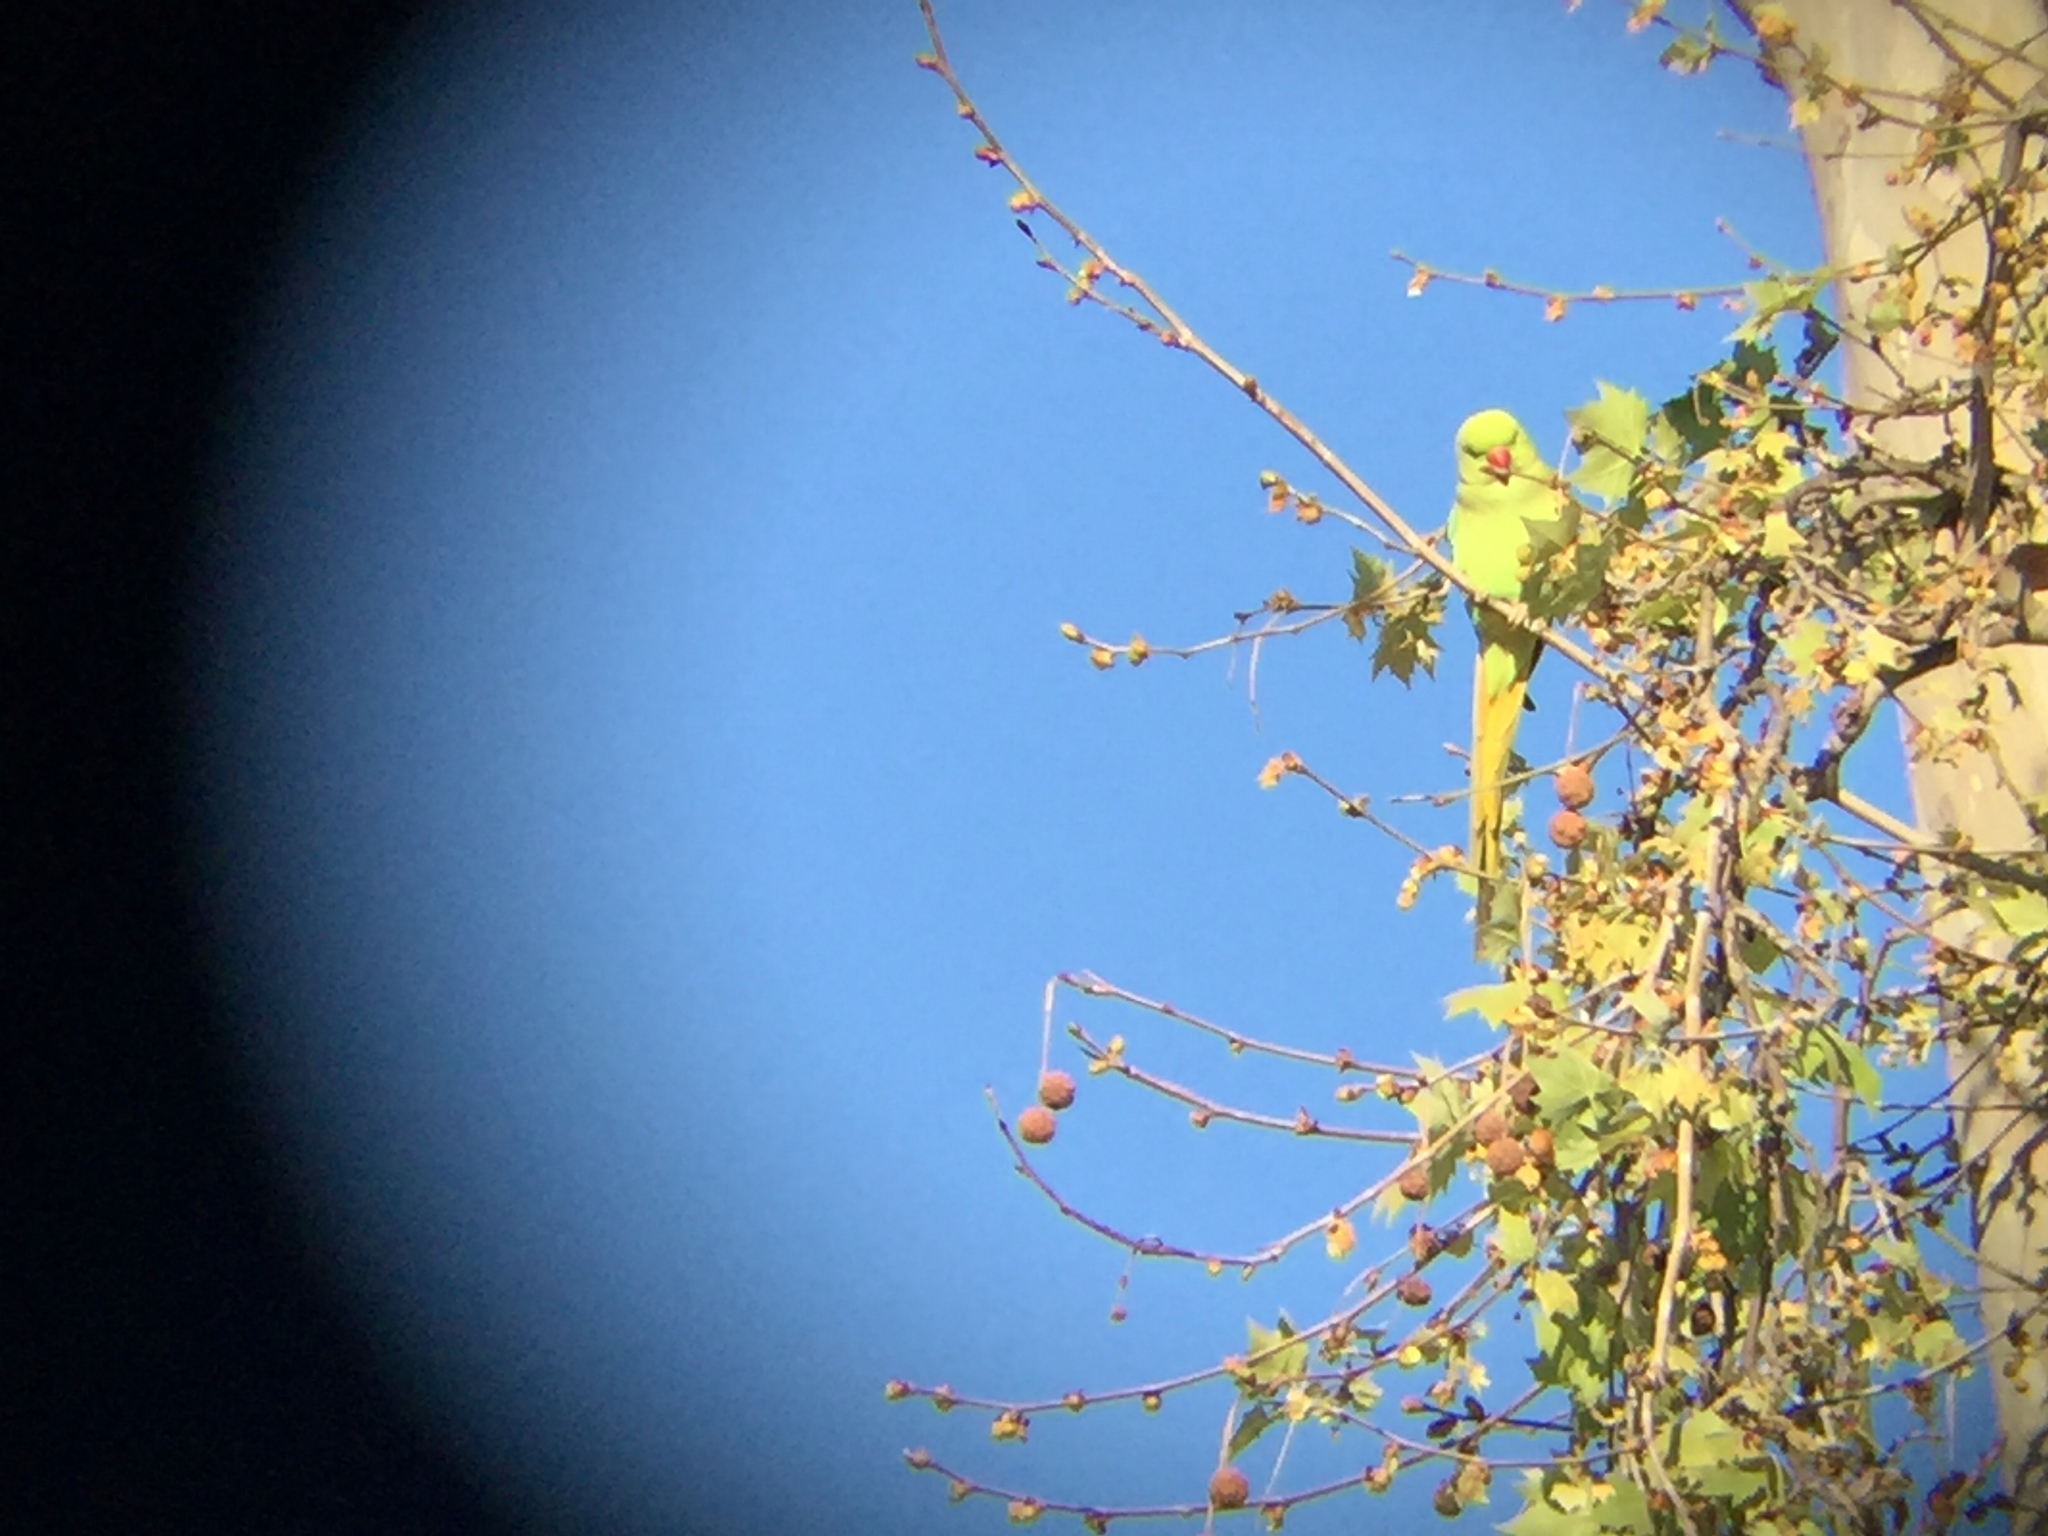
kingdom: Animalia
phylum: Chordata
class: Aves
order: Psittaciformes
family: Psittacidae
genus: Psittacula
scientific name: Psittacula krameri
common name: Rose-ringed parakeet
